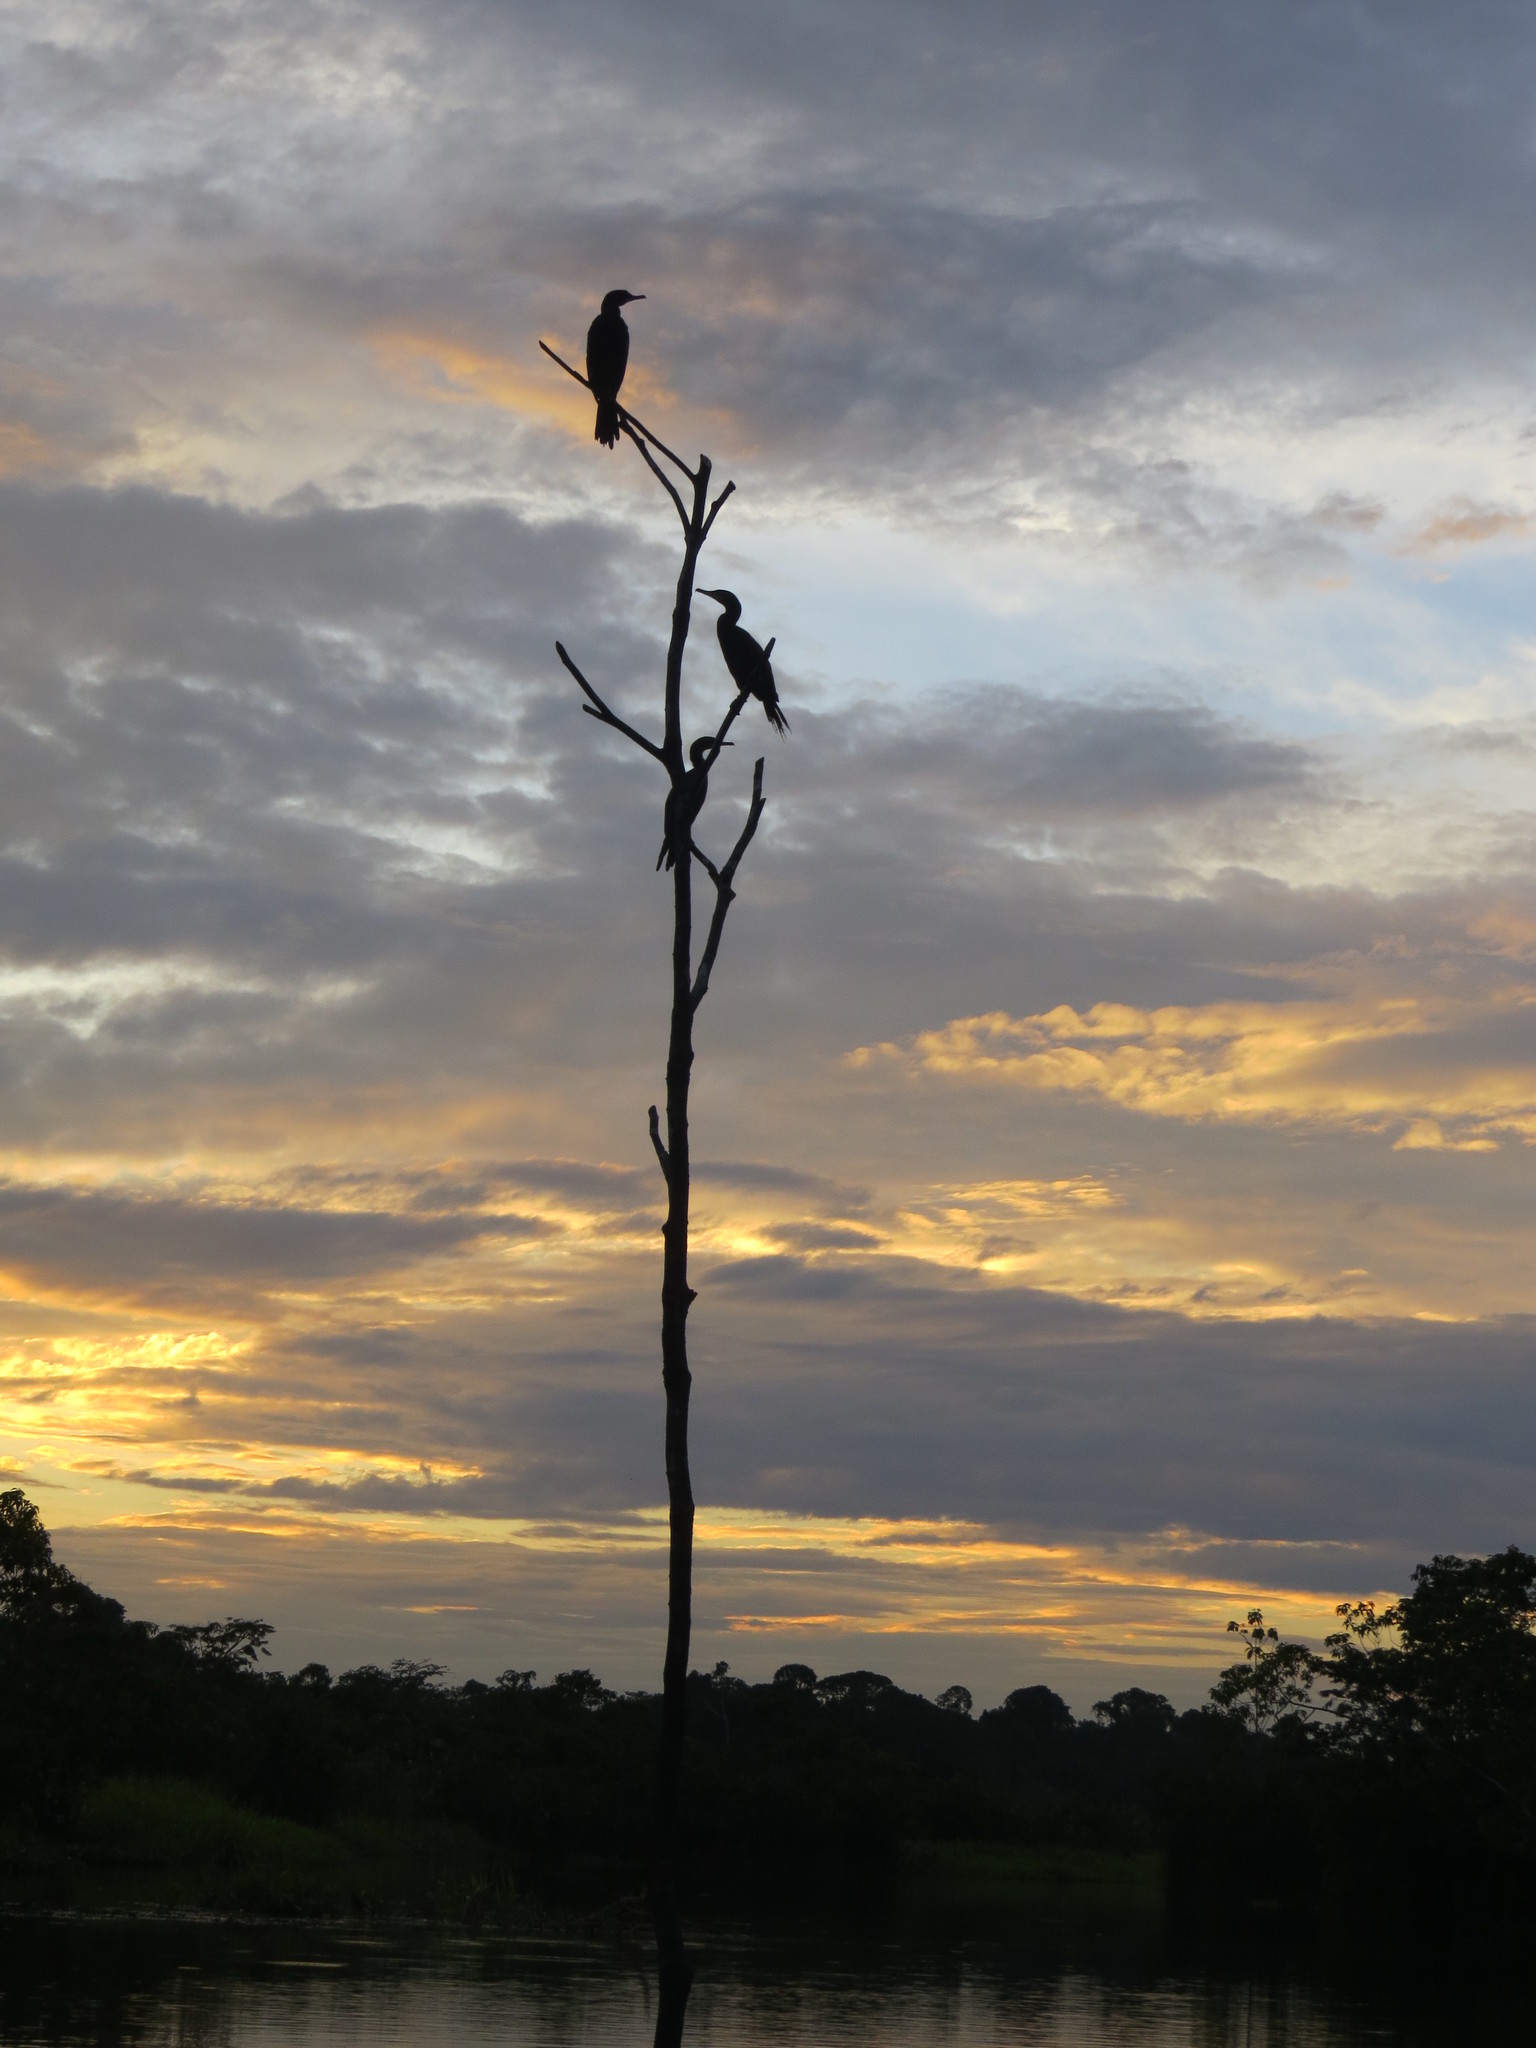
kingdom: Animalia
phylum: Chordata
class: Aves
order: Suliformes
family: Phalacrocoracidae
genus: Phalacrocorax
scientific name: Phalacrocorax brasilianus
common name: Neotropic cormorant
